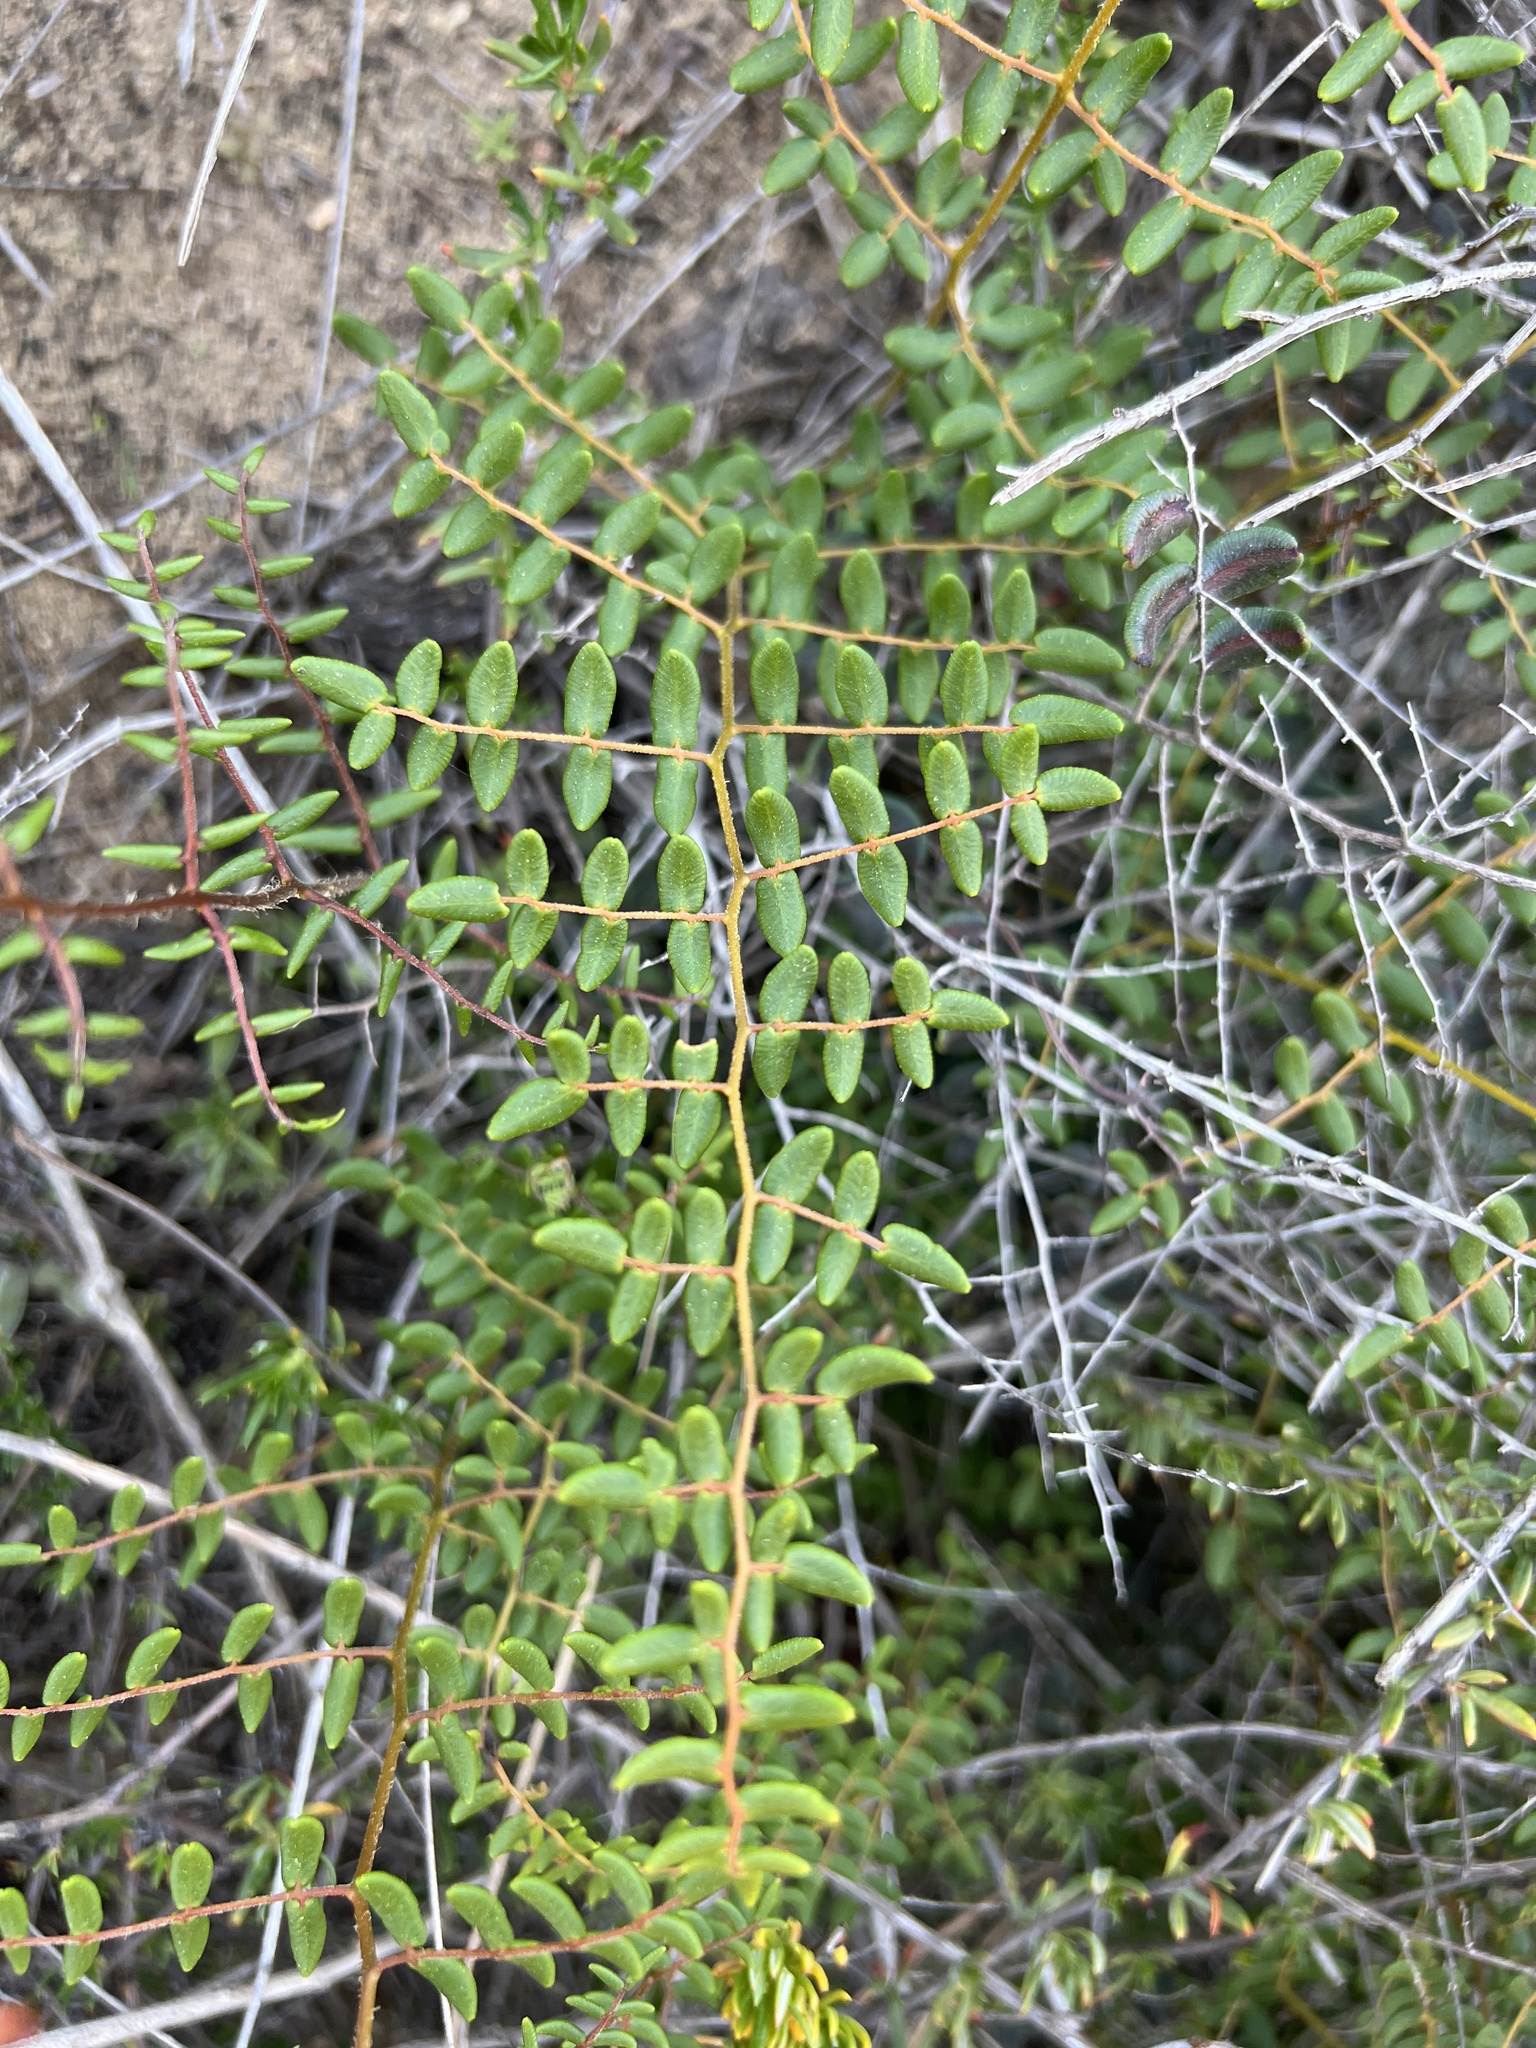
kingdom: Plantae
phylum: Tracheophyta
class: Polypodiopsida
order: Polypodiales
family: Pteridaceae
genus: Pellaea
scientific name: Pellaea andromedifolia
